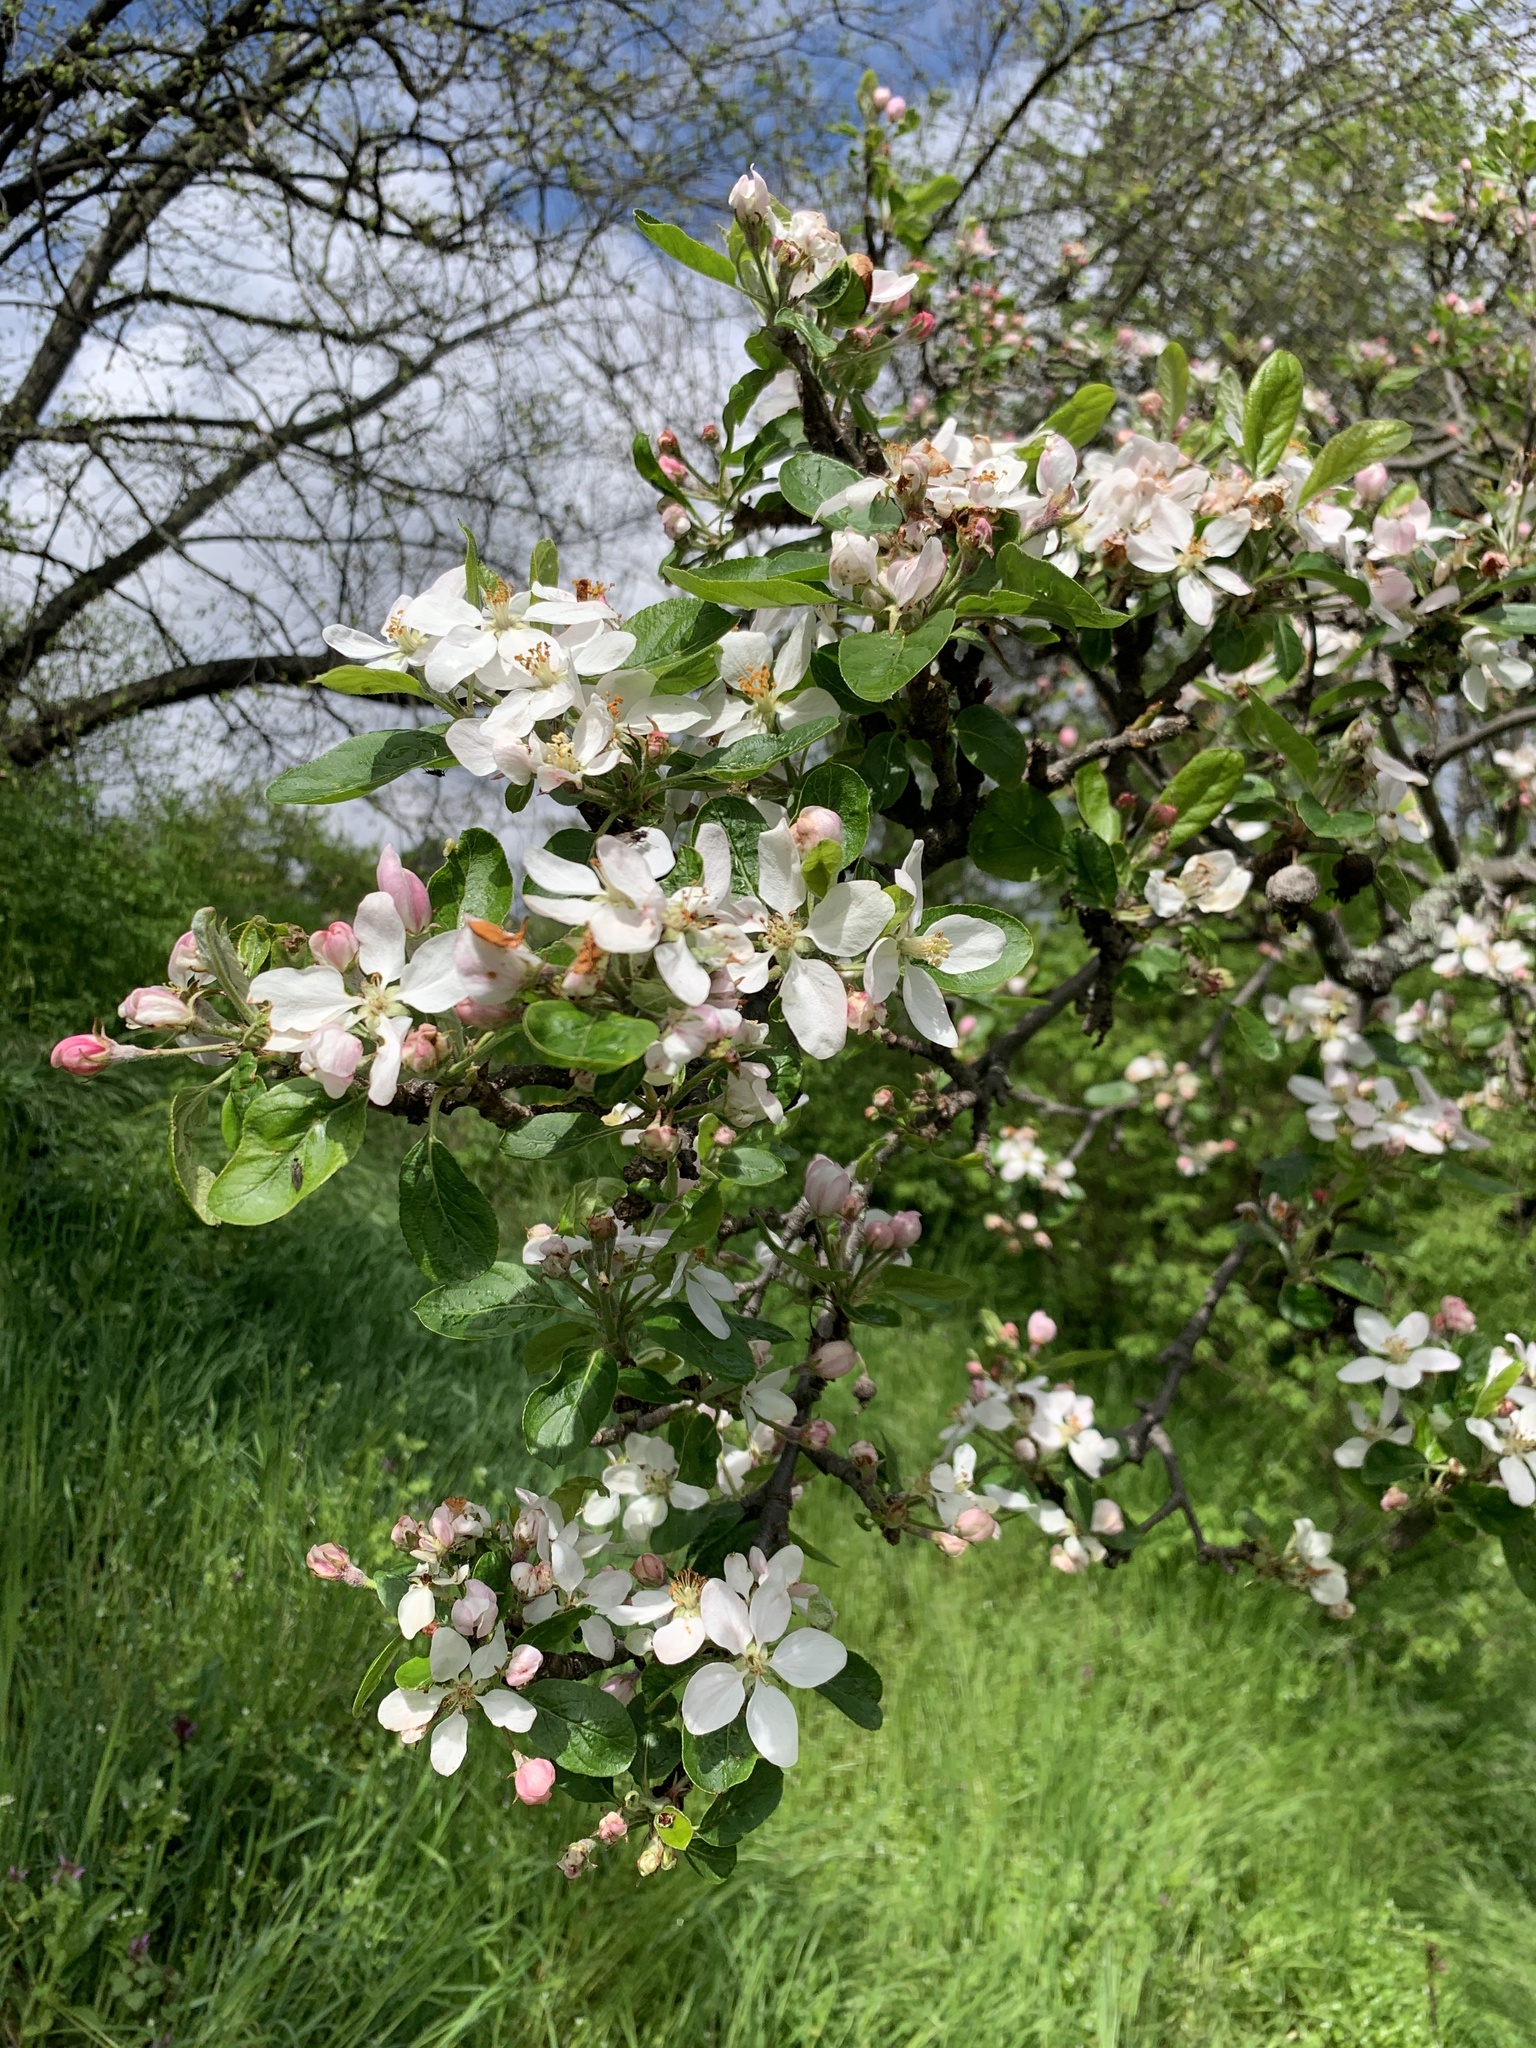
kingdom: Plantae
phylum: Tracheophyta
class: Magnoliopsida
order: Rosales
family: Rosaceae
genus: Malus
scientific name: Malus domestica
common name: Apple
